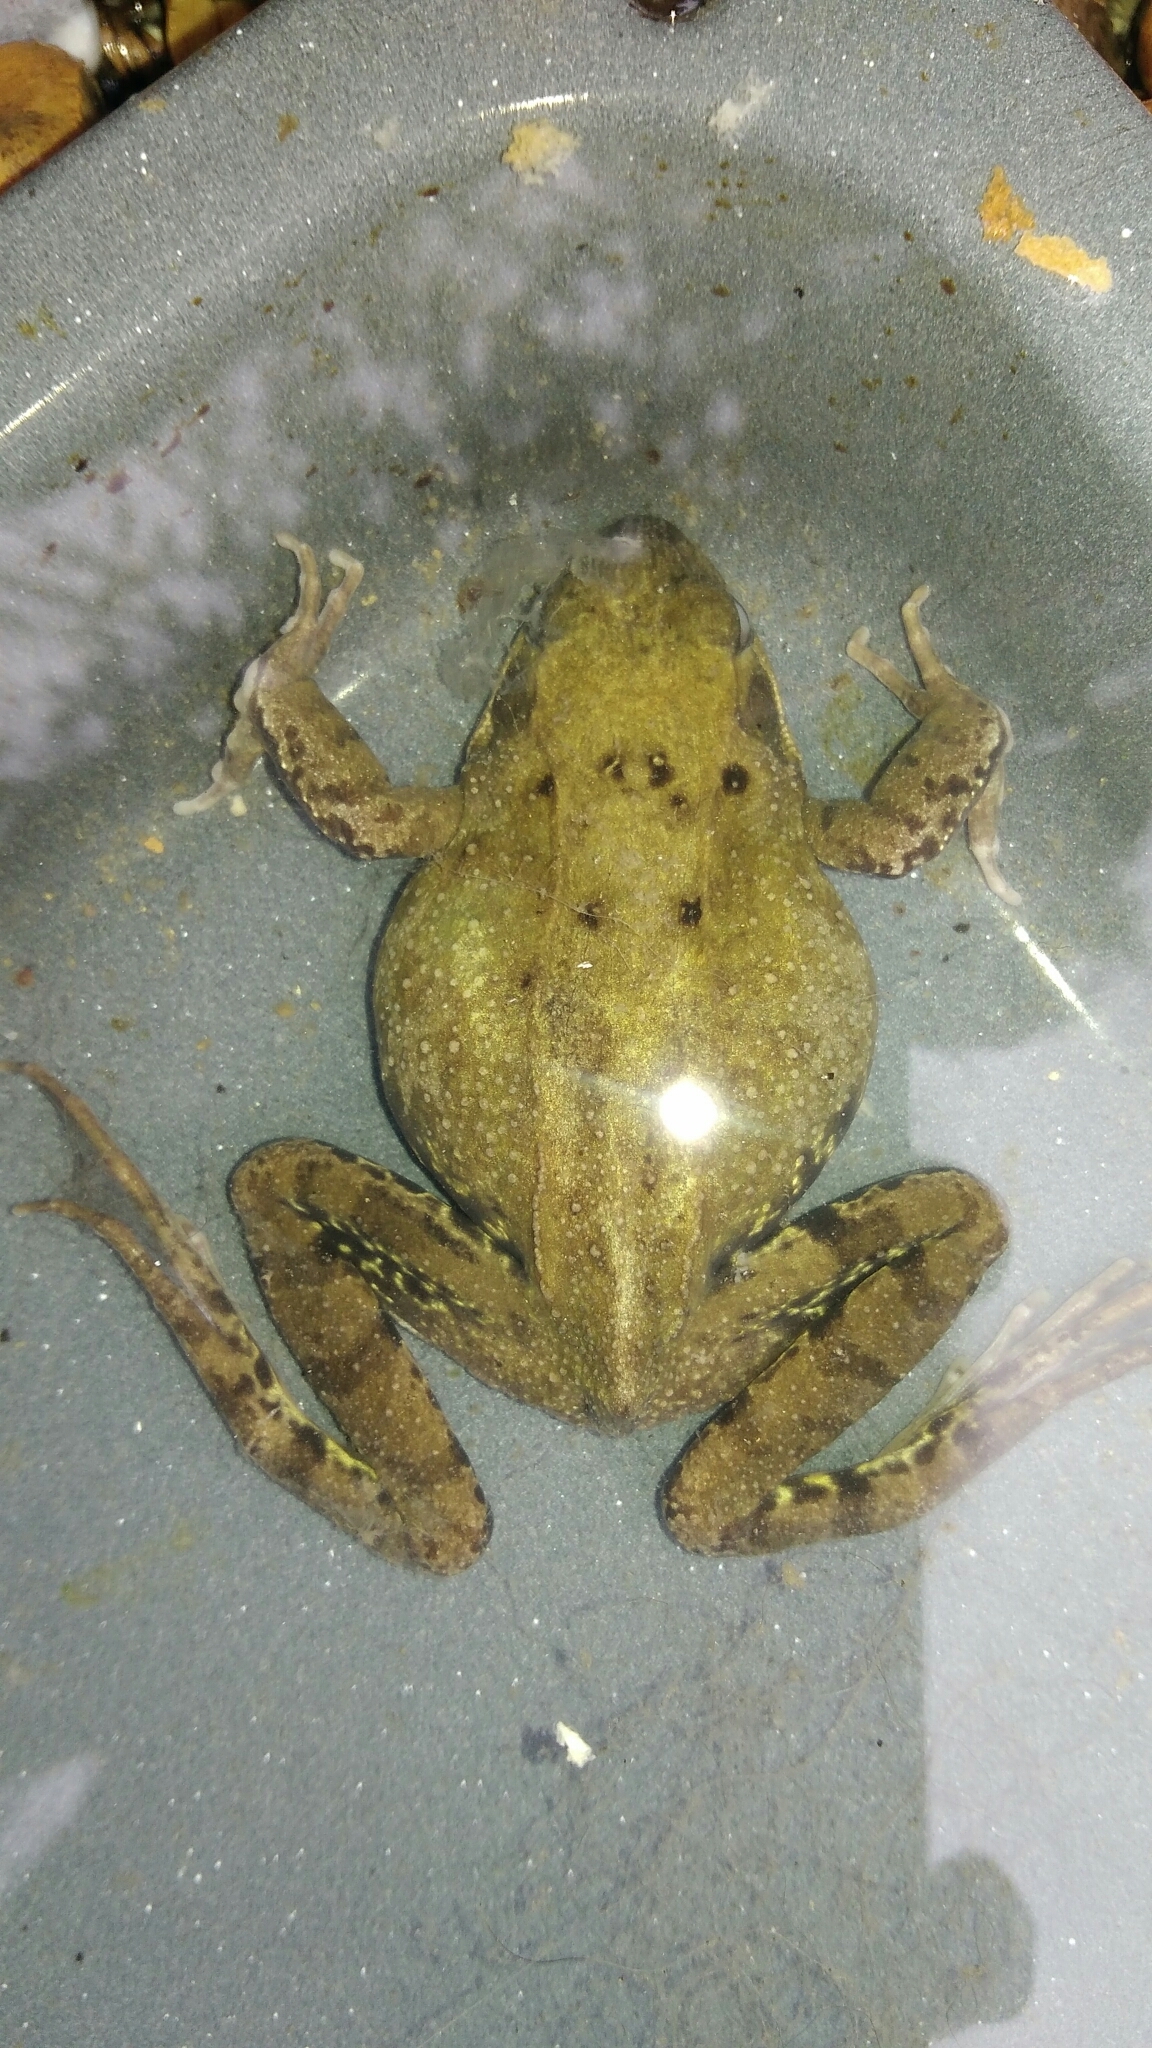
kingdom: Animalia
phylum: Chordata
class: Amphibia
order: Anura
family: Ranidae
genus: Rana
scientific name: Rana temporaria
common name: Common frog
